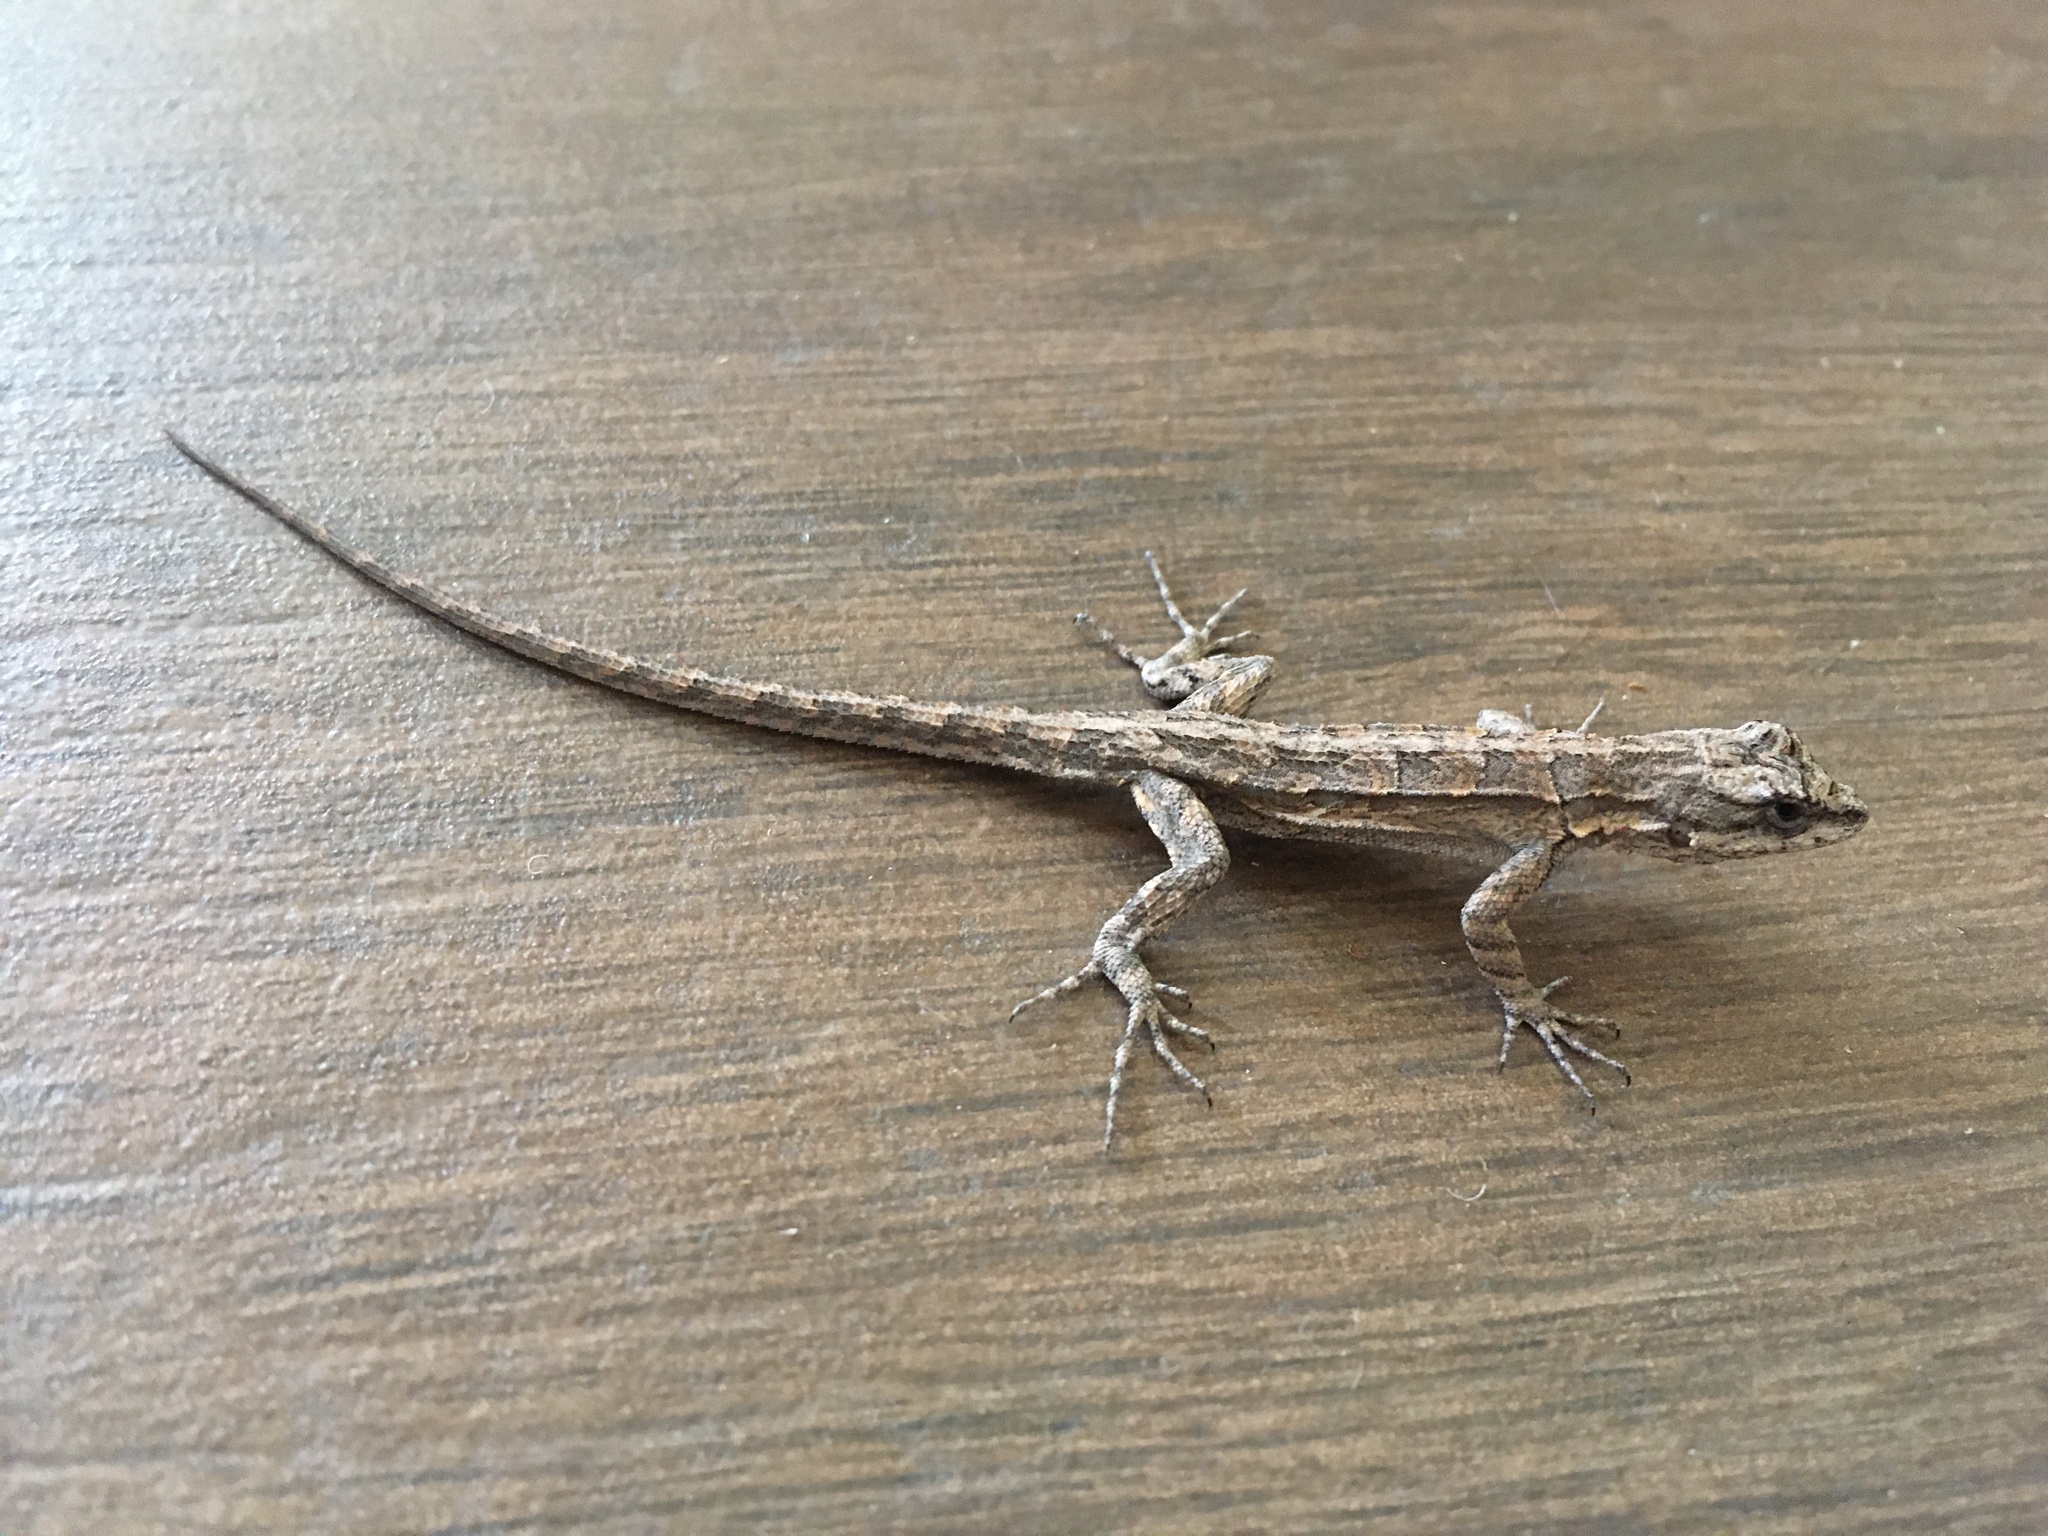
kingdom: Animalia
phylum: Chordata
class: Squamata
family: Phrynosomatidae
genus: Urosaurus
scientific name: Urosaurus ornatus
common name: Ornate tree lizard
